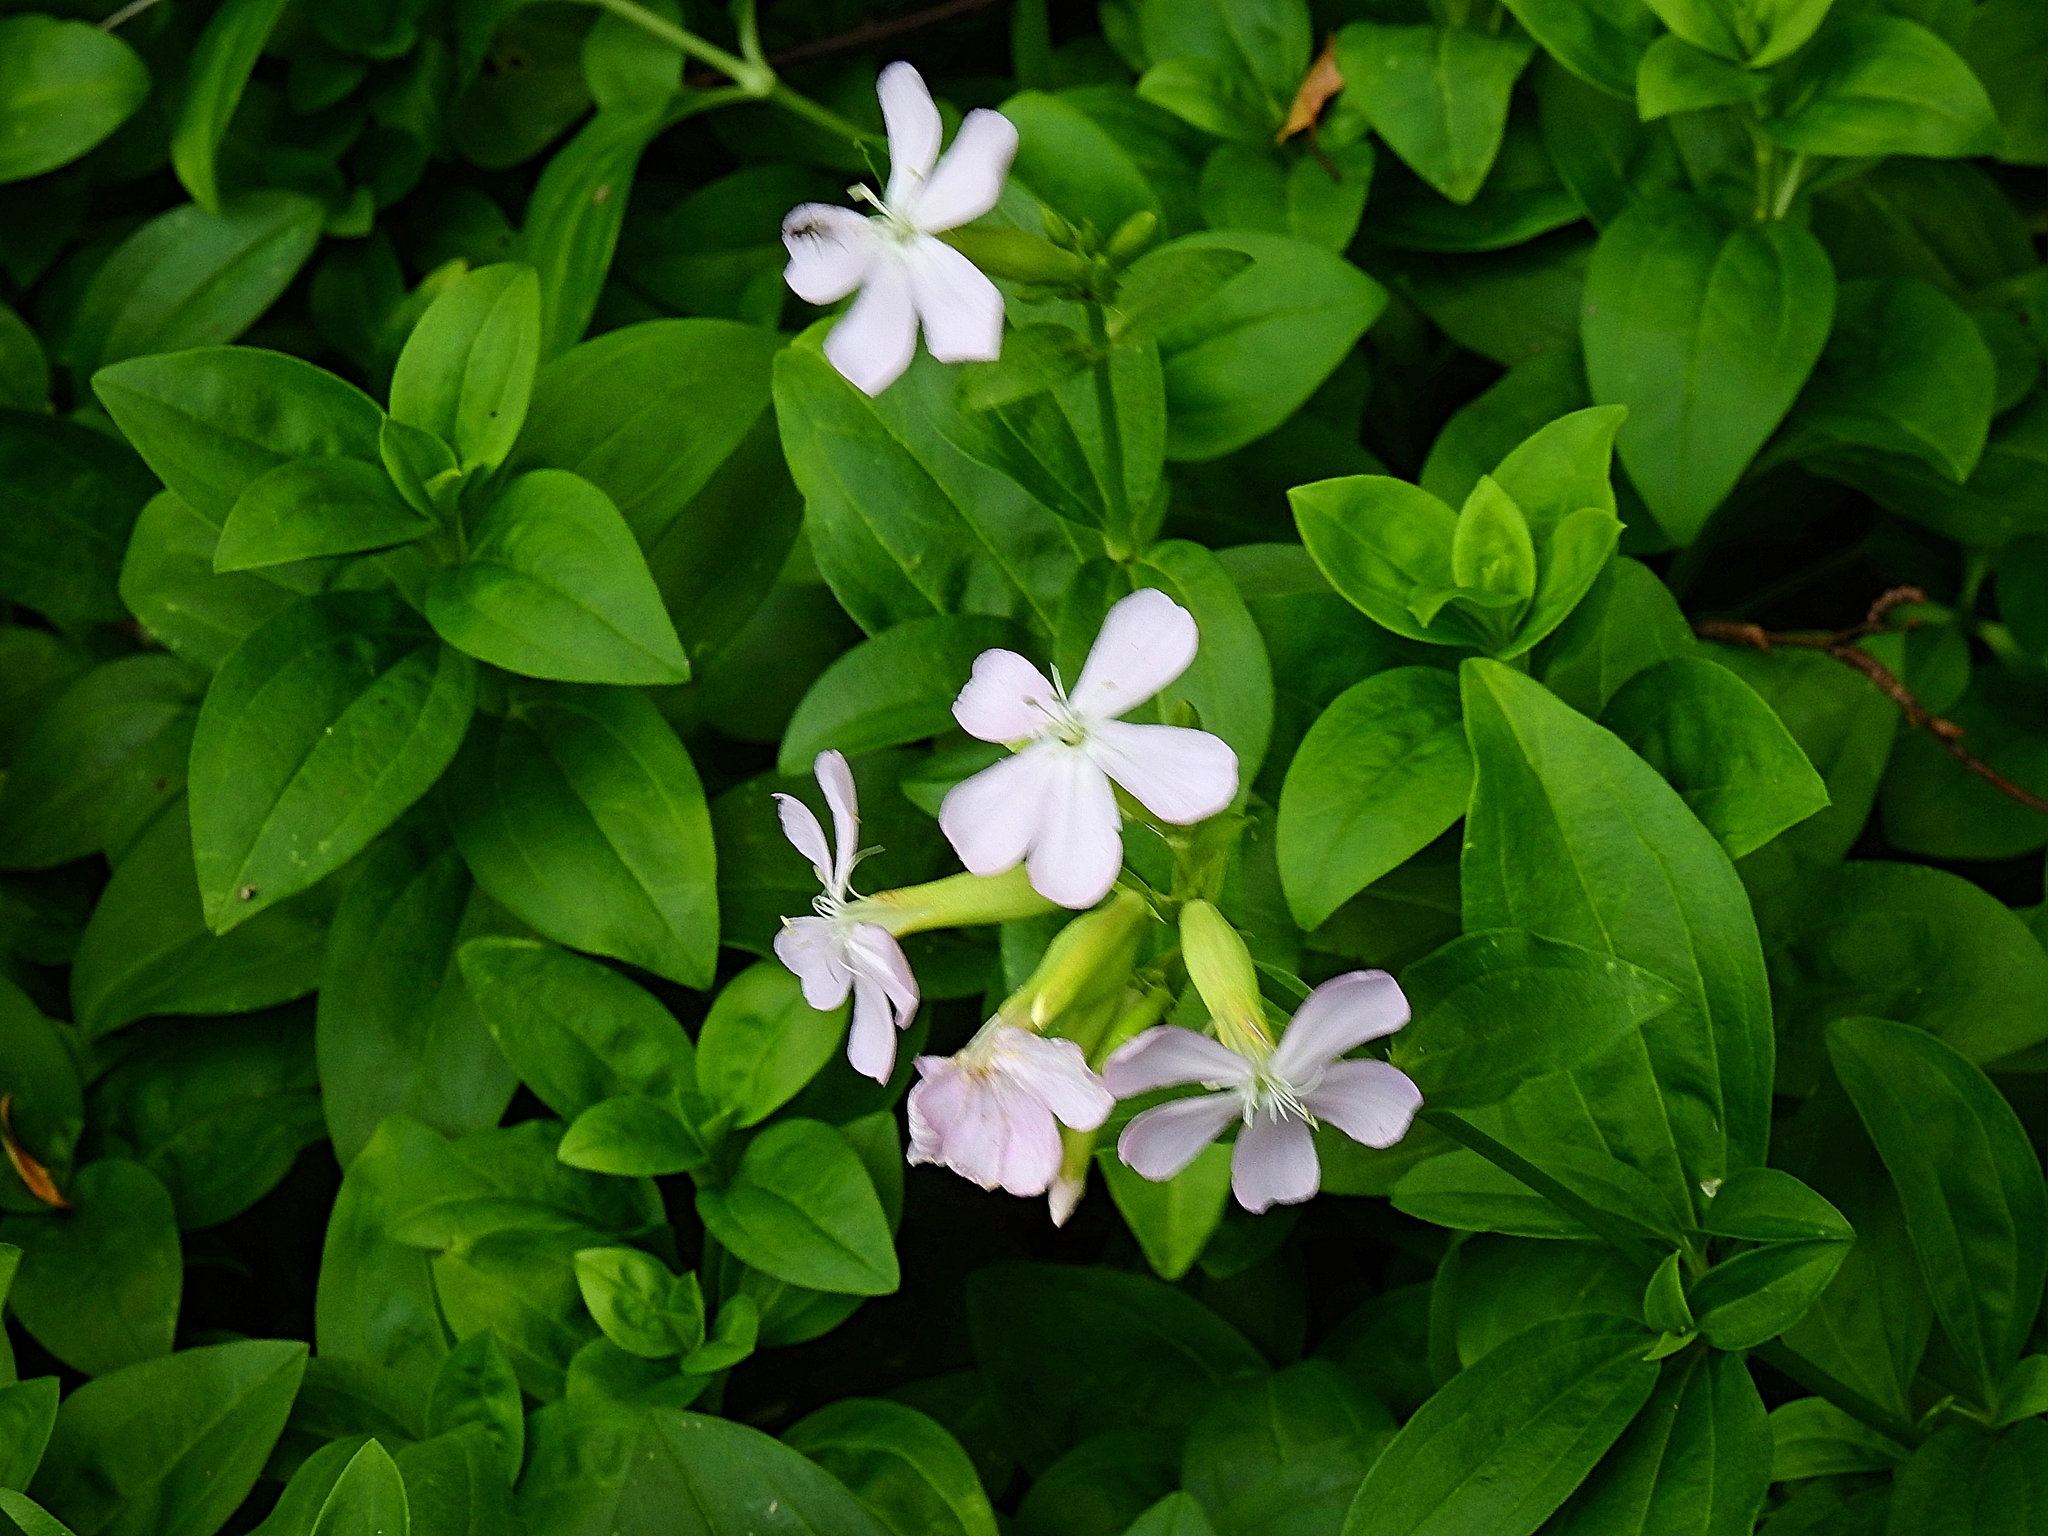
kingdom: Plantae
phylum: Tracheophyta
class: Magnoliopsida
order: Caryophyllales
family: Caryophyllaceae
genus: Saponaria
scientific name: Saponaria officinalis
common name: Soapwort
